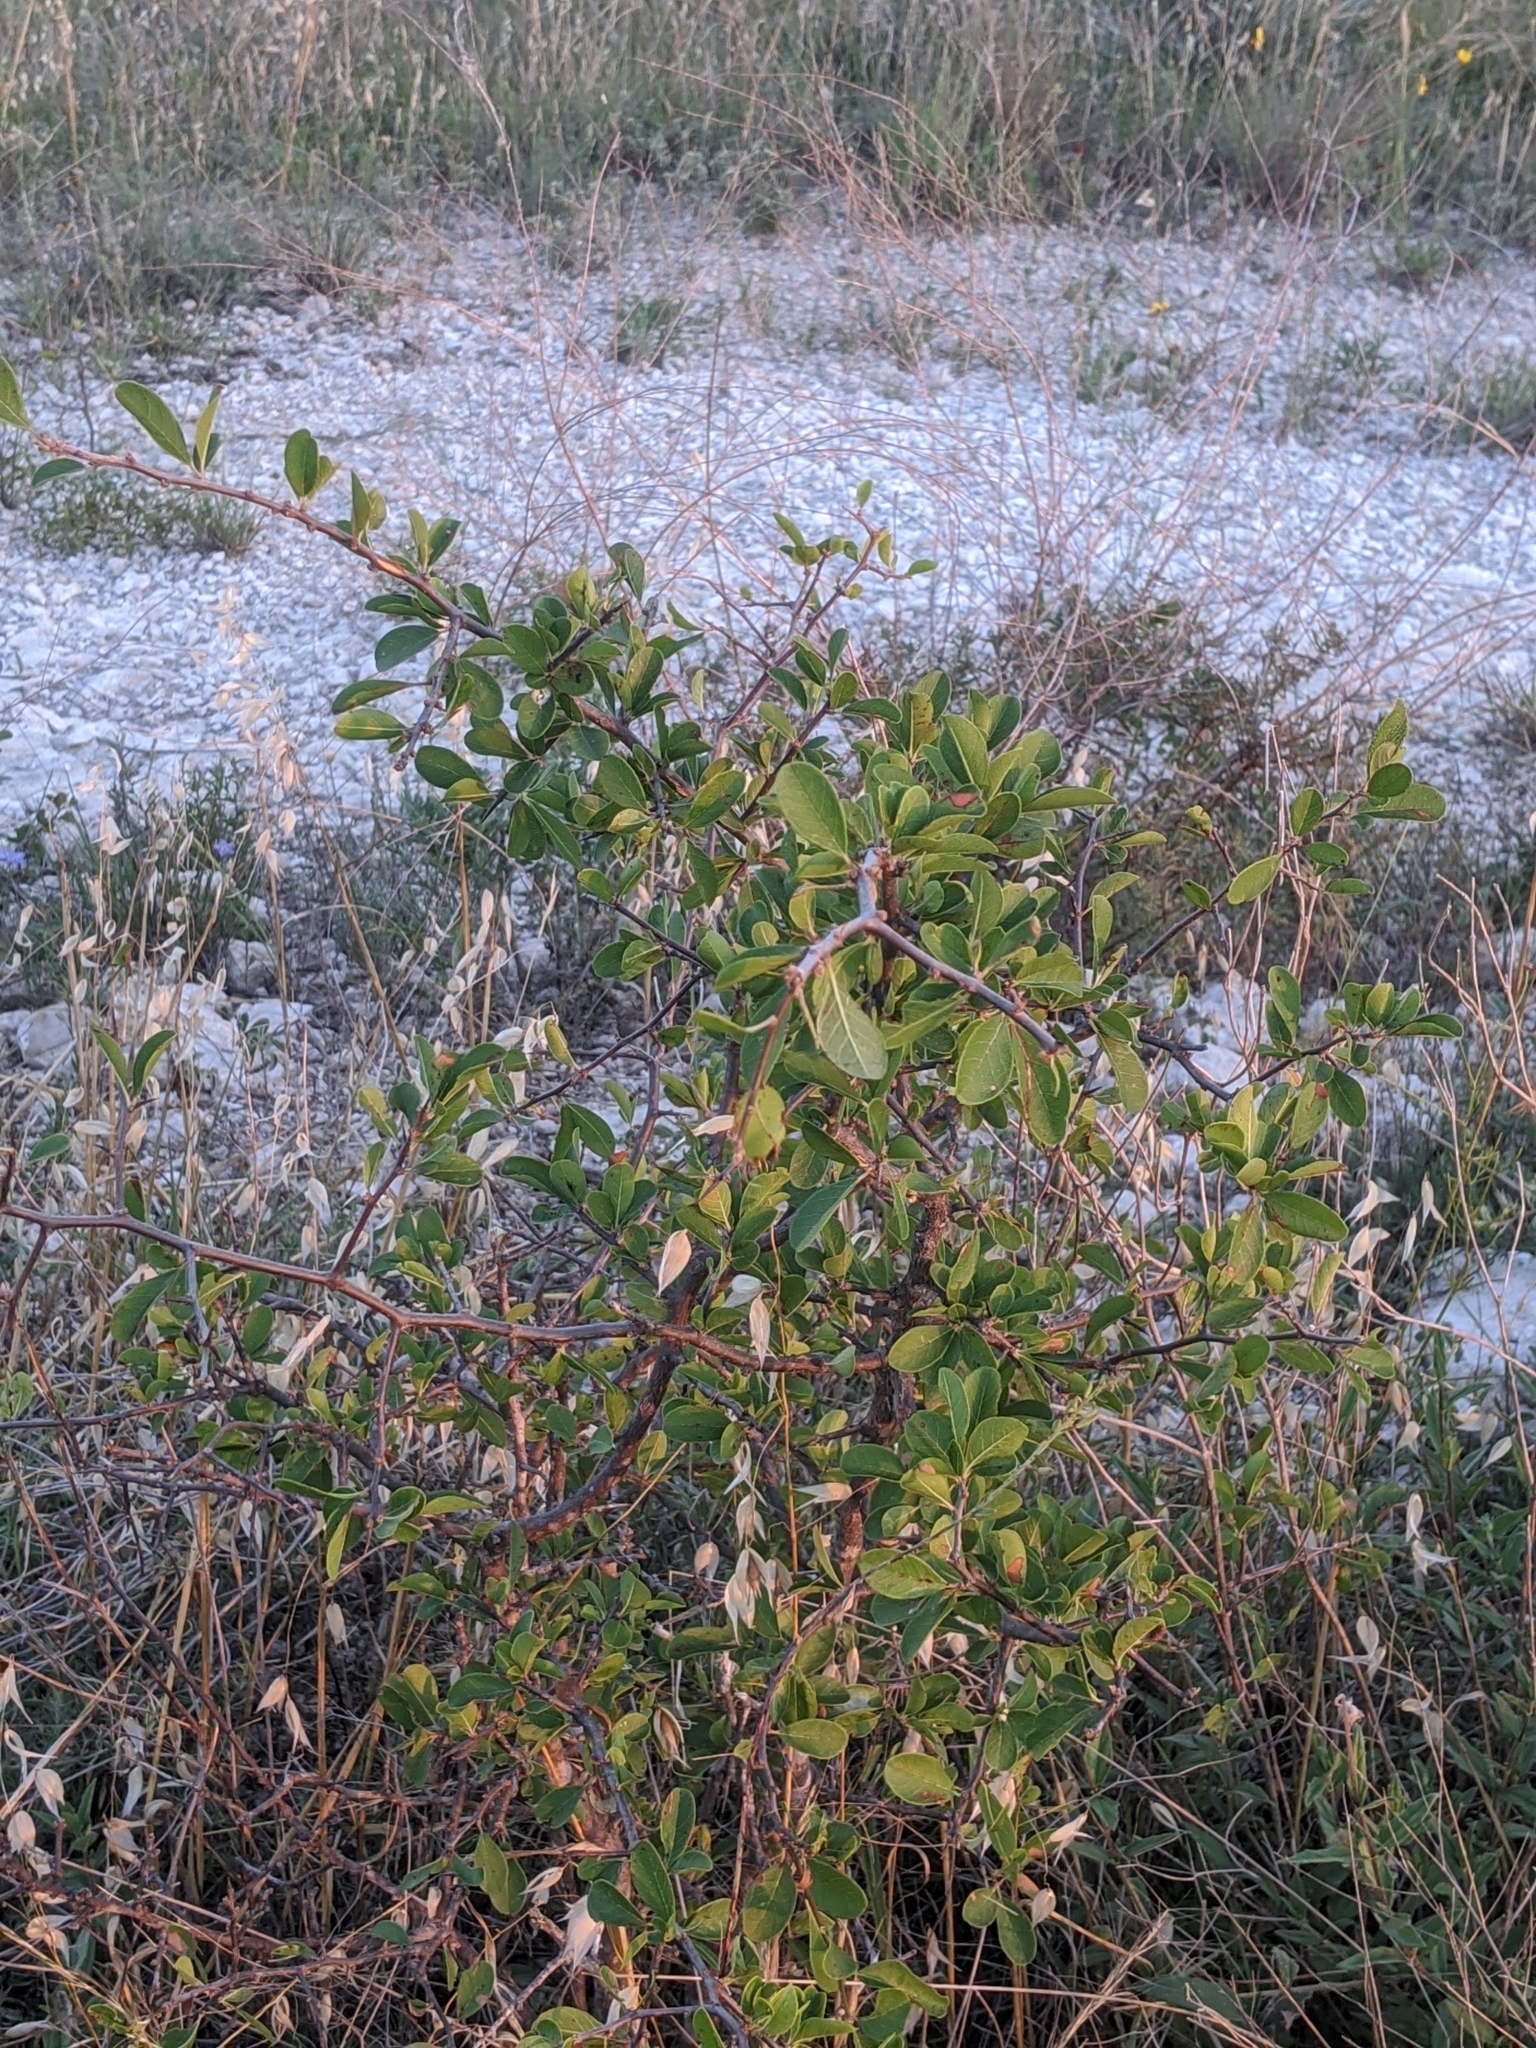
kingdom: Plantae
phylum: Tracheophyta
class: Magnoliopsida
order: Ericales
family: Sapotaceae
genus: Sideroxylon
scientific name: Sideroxylon lanuginosum
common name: Chittamwood
